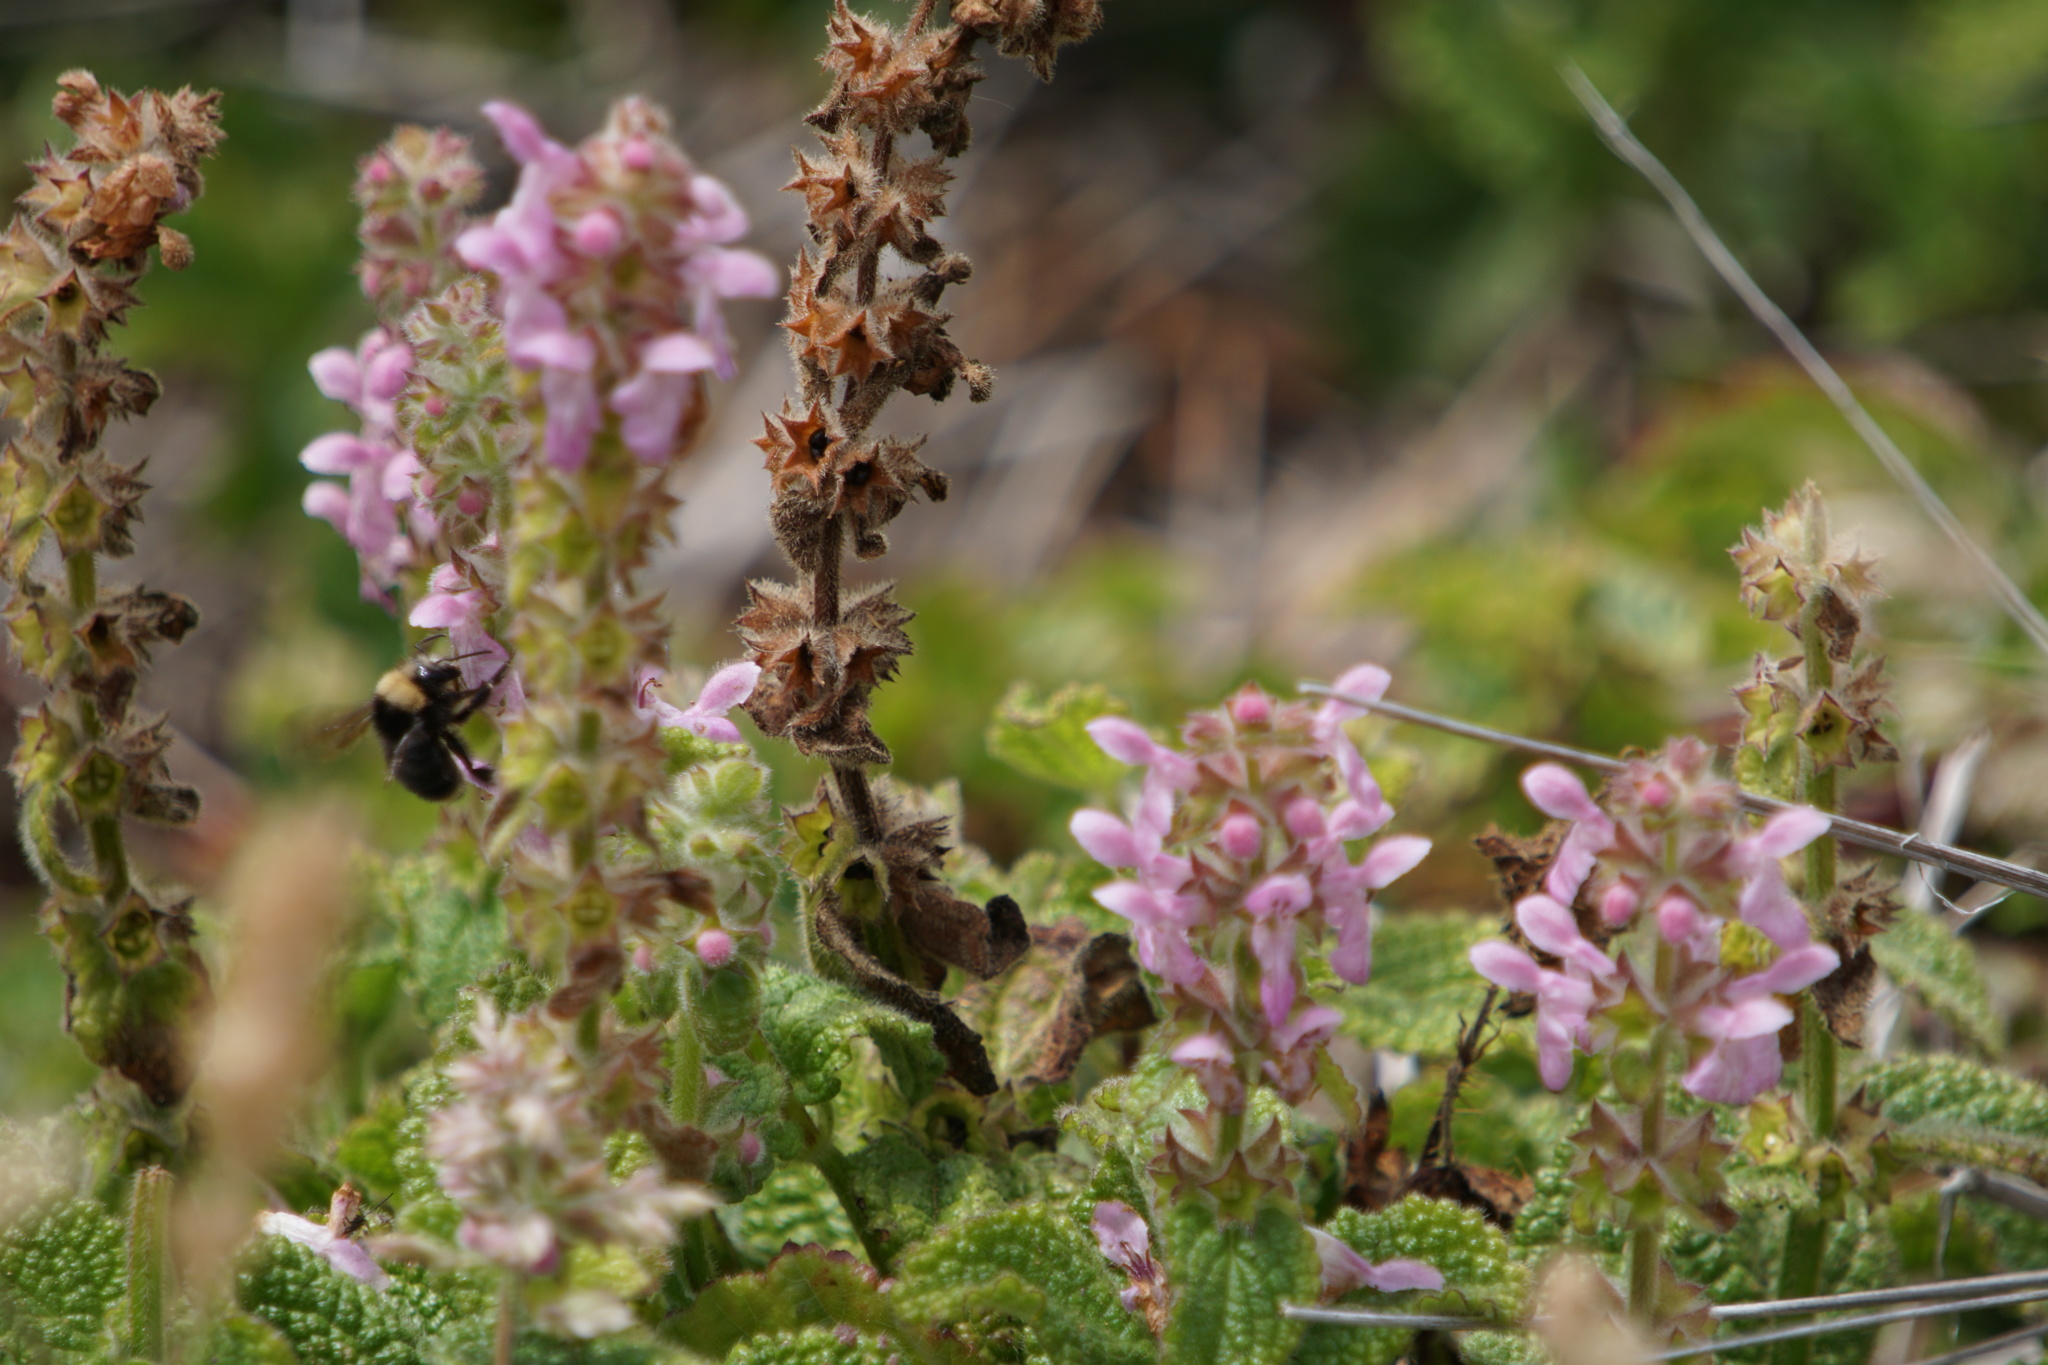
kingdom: Plantae
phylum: Tracheophyta
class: Magnoliopsida
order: Lamiales
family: Lamiaceae
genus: Stachys
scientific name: Stachys ajugoides
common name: Hedge-nettle
